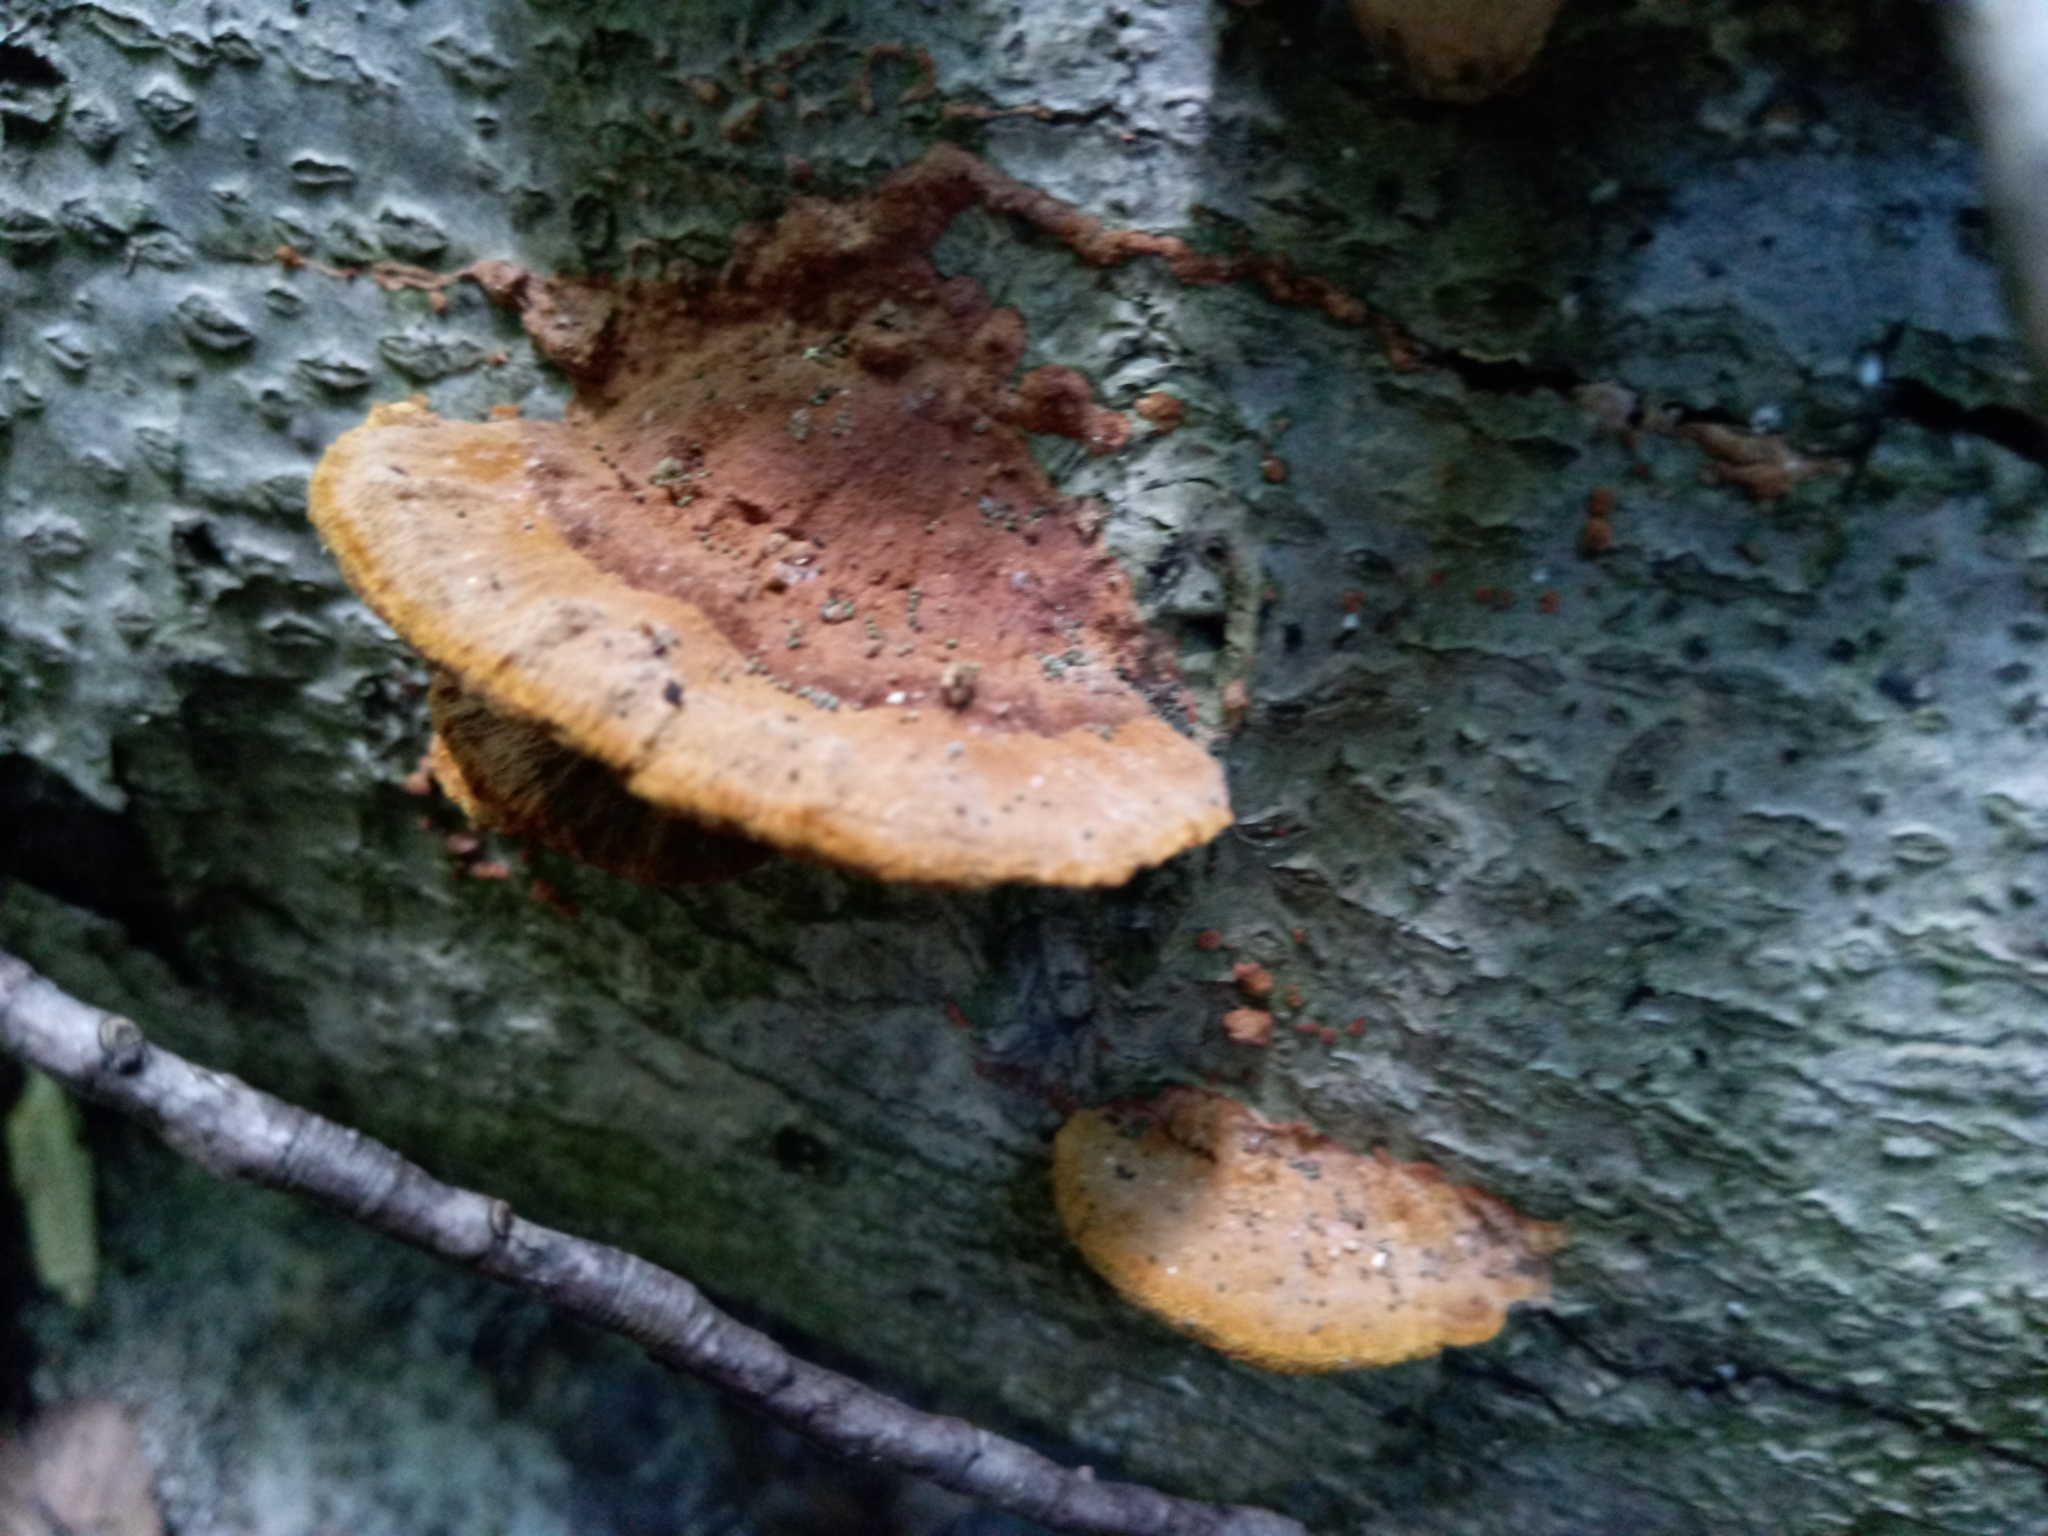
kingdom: Fungi
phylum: Basidiomycota
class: Agaricomycetes
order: Hymenochaetales
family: Hymenochaetaceae
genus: Phellinus
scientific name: Phellinus gilvus
